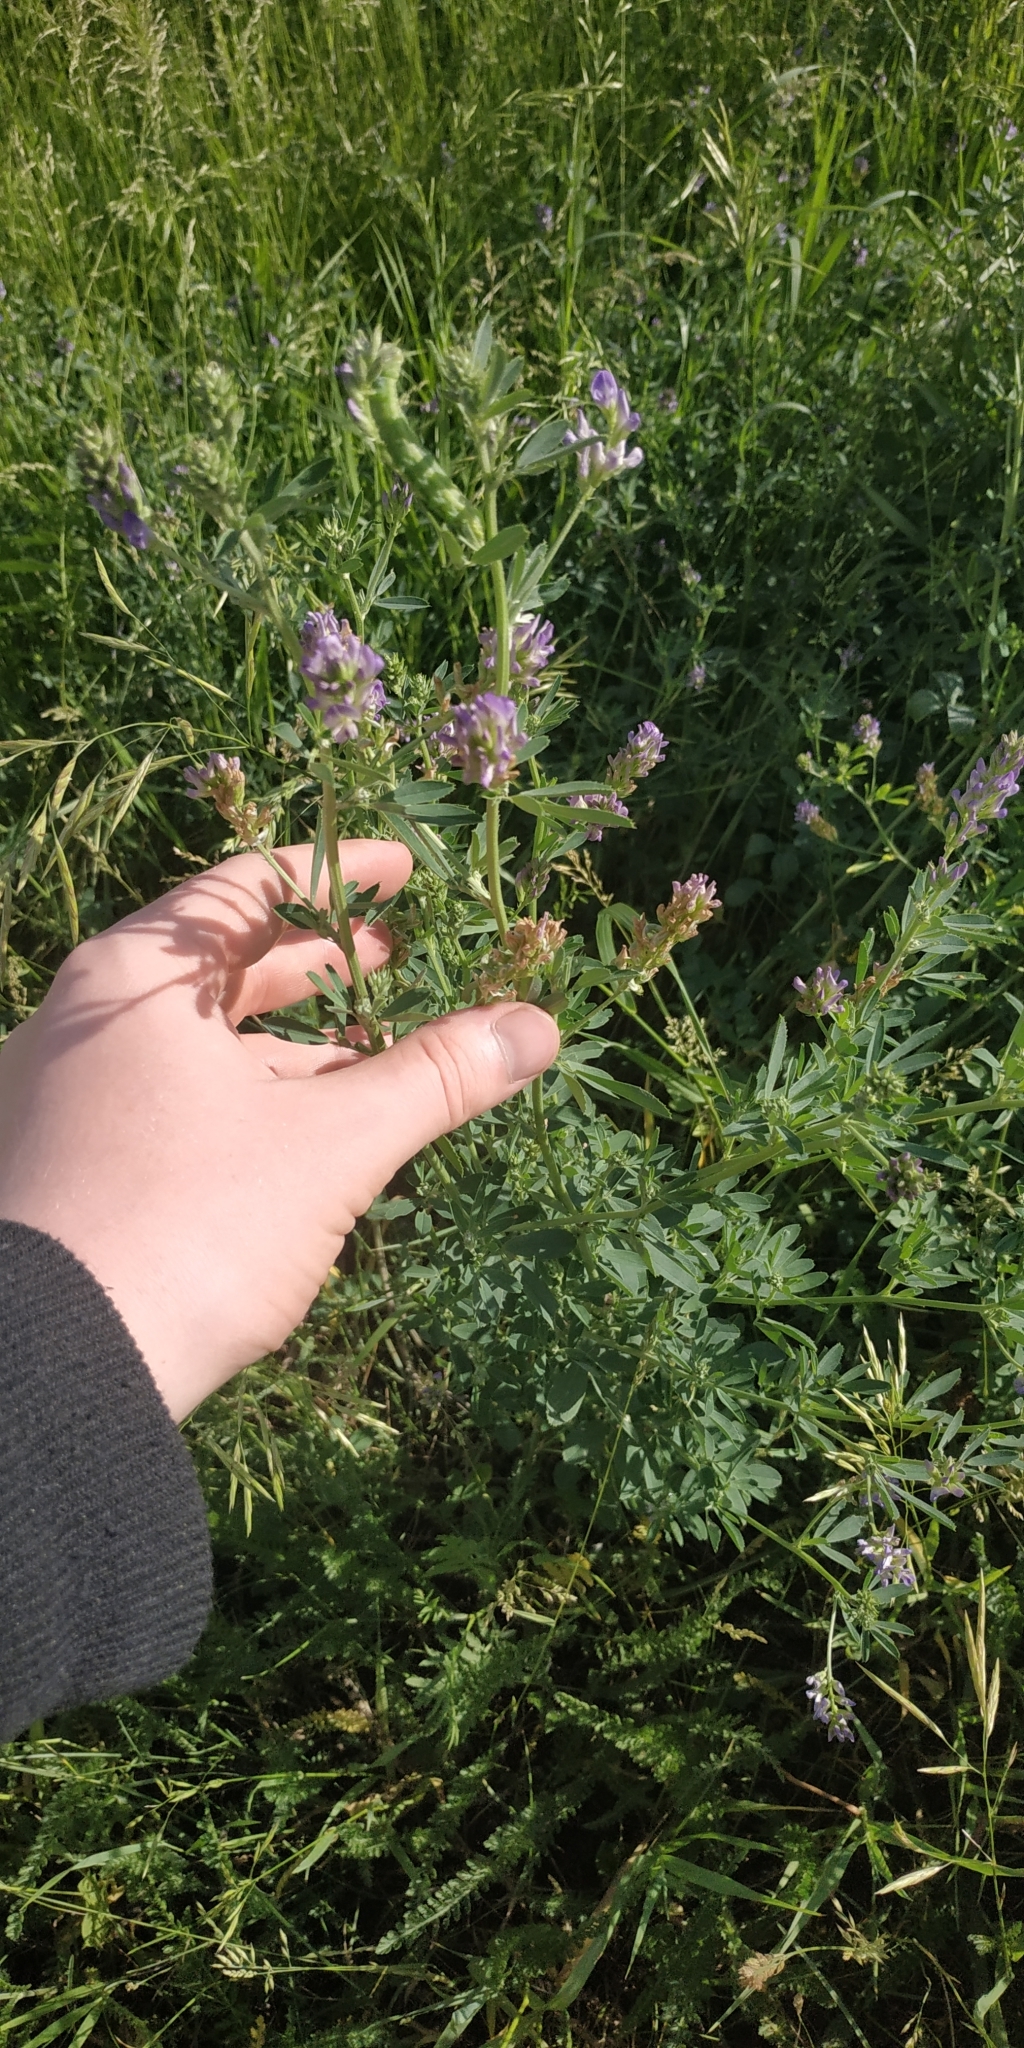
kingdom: Plantae
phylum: Tracheophyta
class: Magnoliopsida
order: Fabales
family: Fabaceae
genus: Medicago
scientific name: Medicago varia
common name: Sand lucerne
